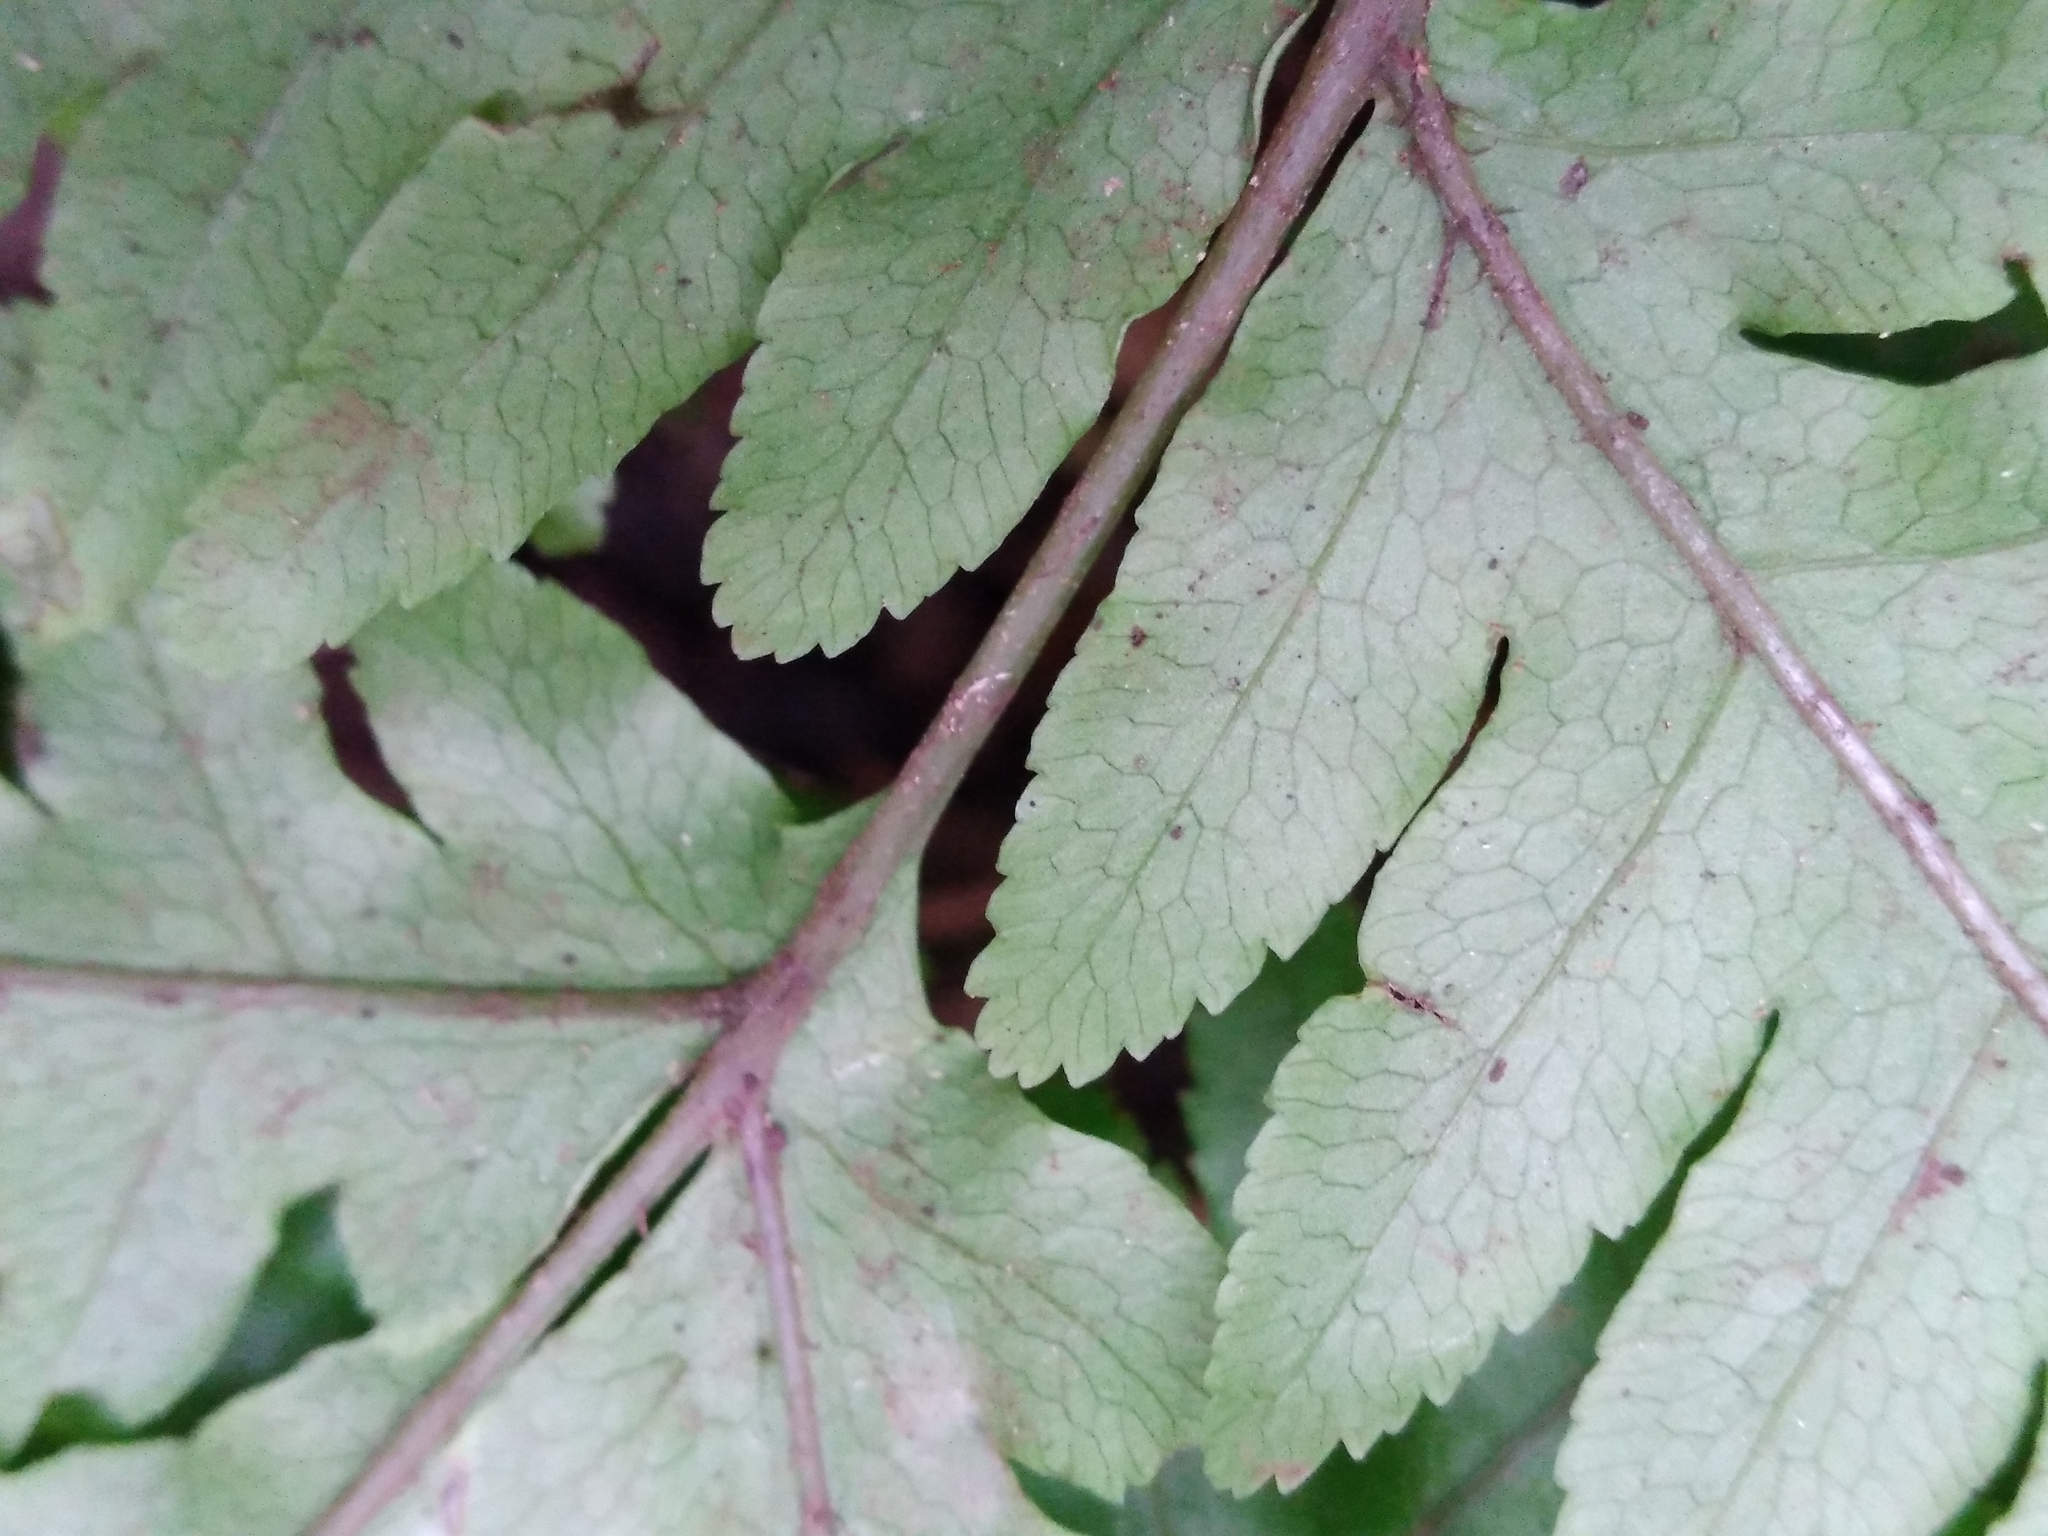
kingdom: Plantae
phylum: Tracheophyta
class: Polypodiopsida
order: Polypodiales
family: Pteridaceae
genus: Pteris
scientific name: Pteris zahlbruckneriana
